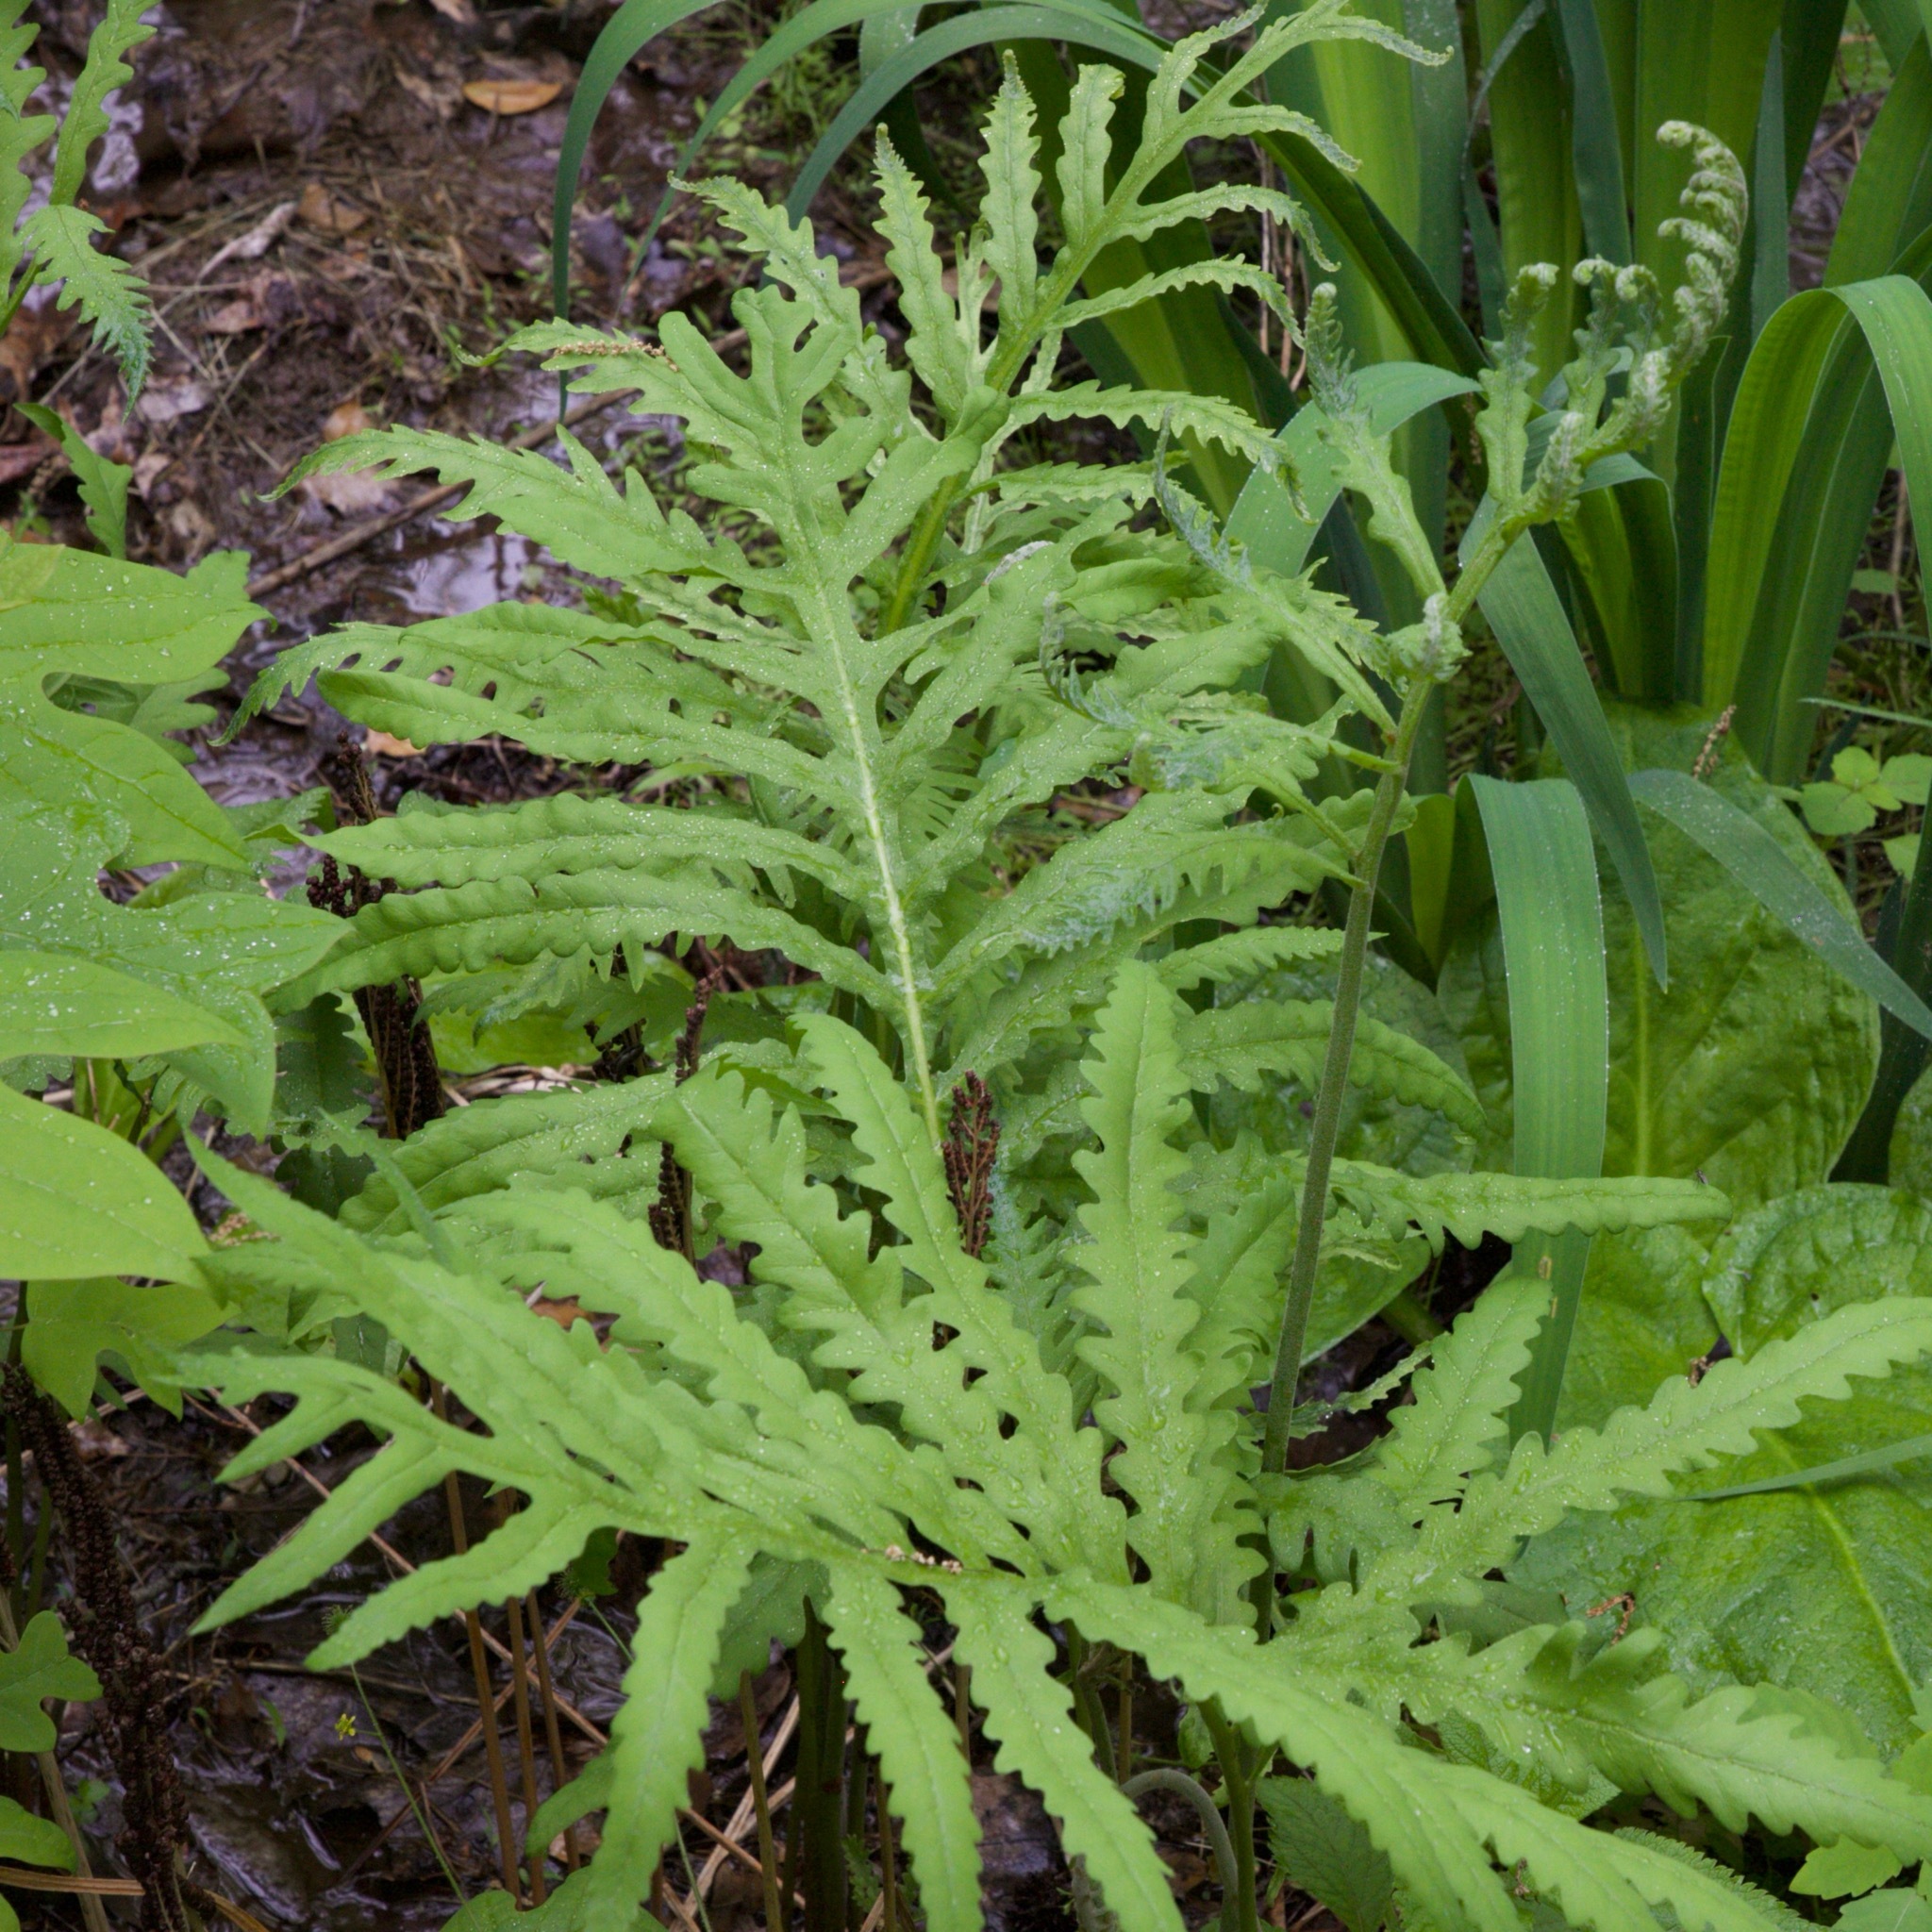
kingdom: Plantae
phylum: Tracheophyta
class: Polypodiopsida
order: Polypodiales
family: Onocleaceae
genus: Onoclea
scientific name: Onoclea sensibilis
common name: Sensitive fern
